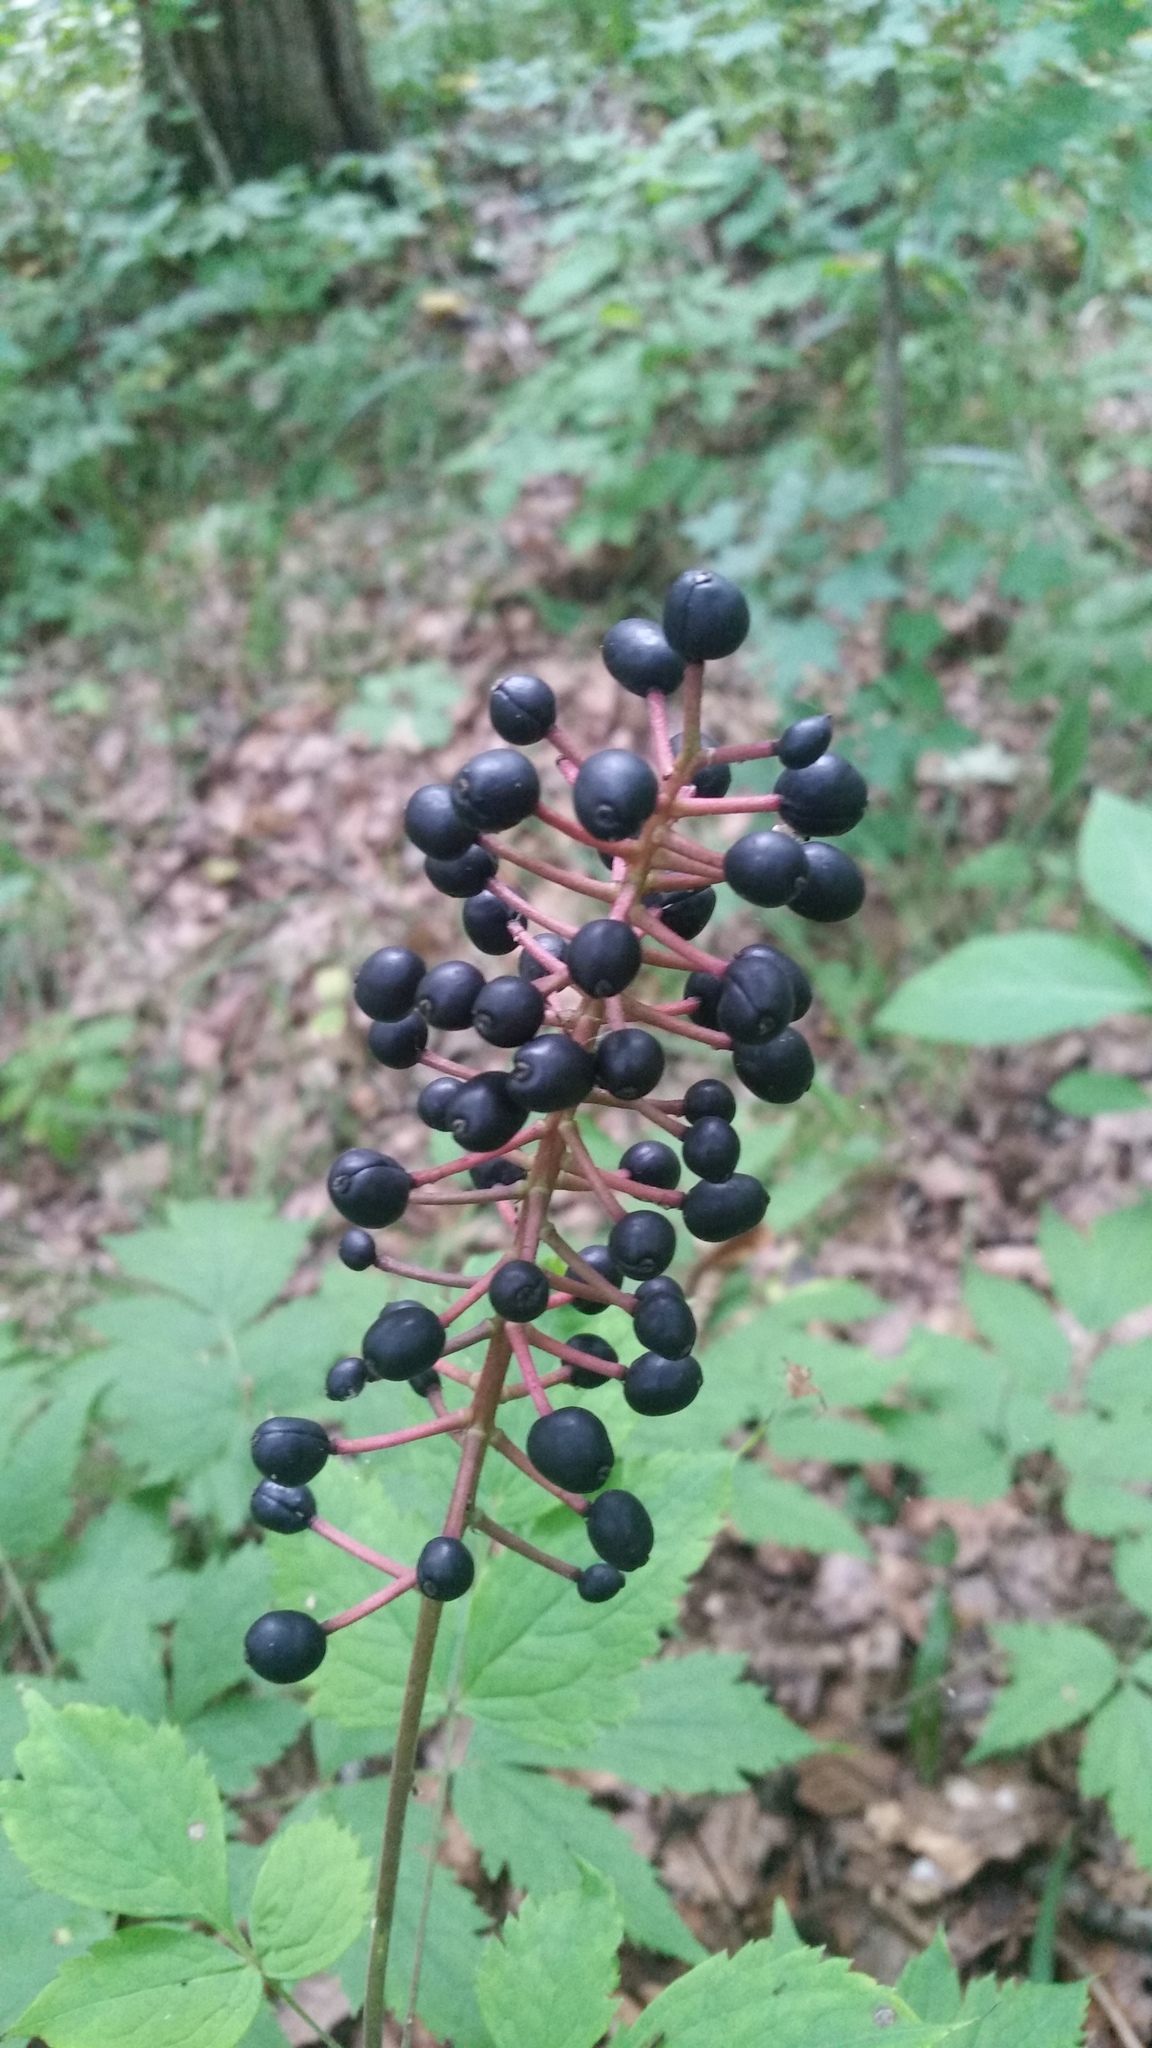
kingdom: Plantae
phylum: Tracheophyta
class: Magnoliopsida
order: Ranunculales
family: Ranunculaceae
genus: Actaea
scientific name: Actaea asiatica
